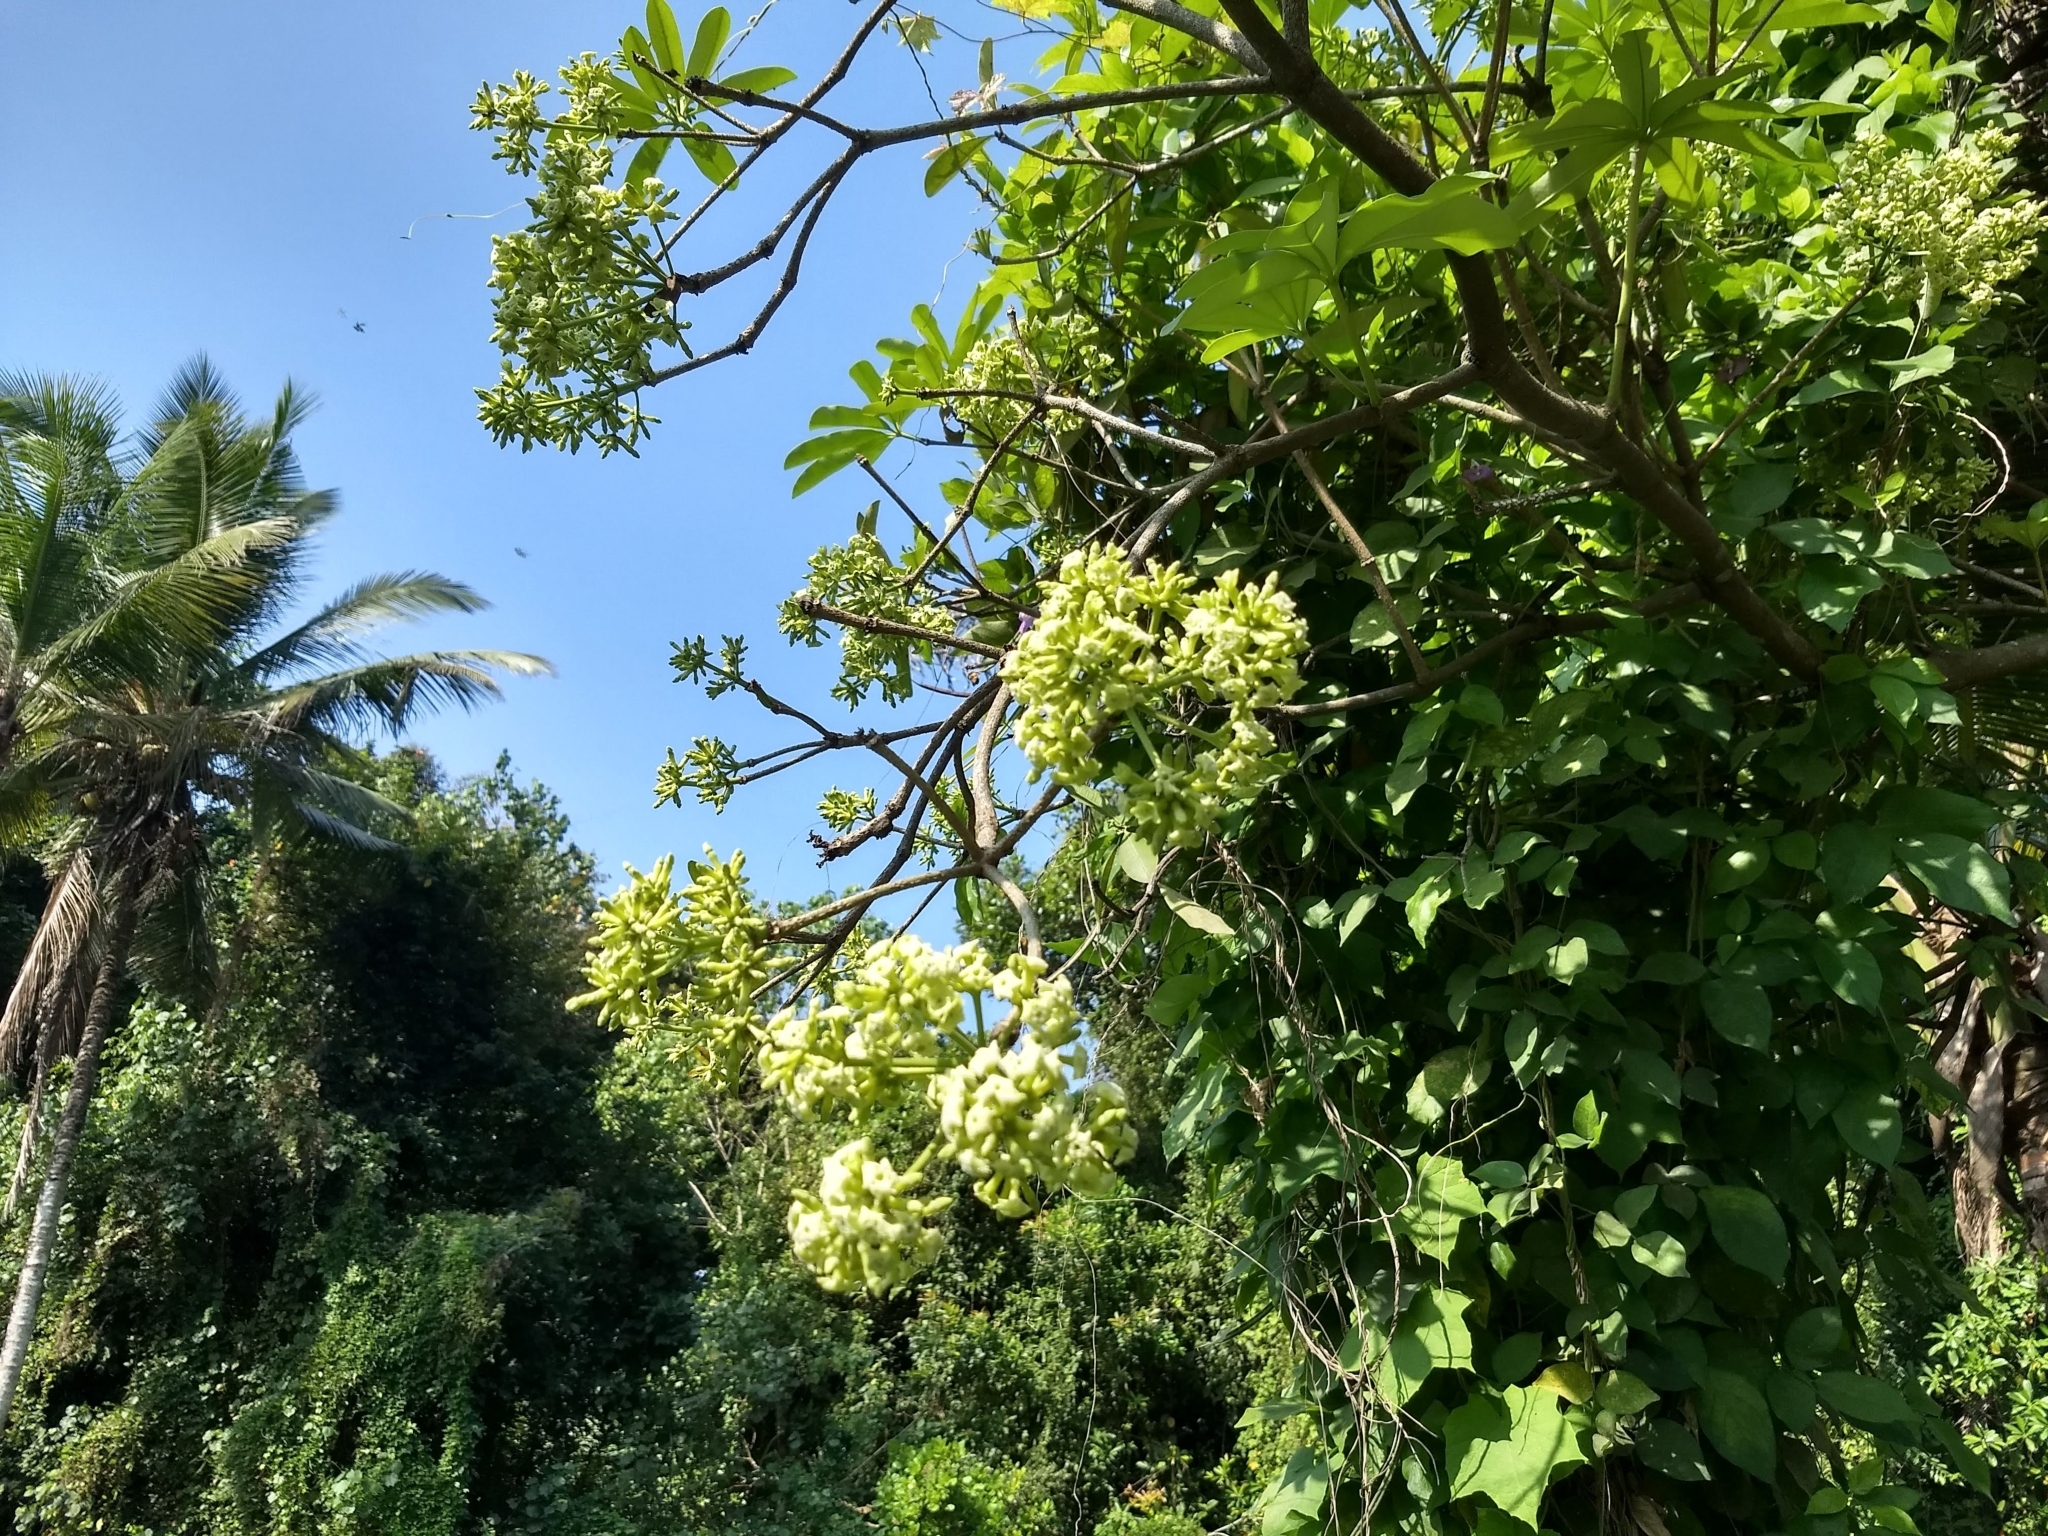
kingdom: Plantae
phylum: Tracheophyta
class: Magnoliopsida
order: Gentianales
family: Apocynaceae
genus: Alstonia
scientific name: Alstonia scholaris
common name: White cheesewood
